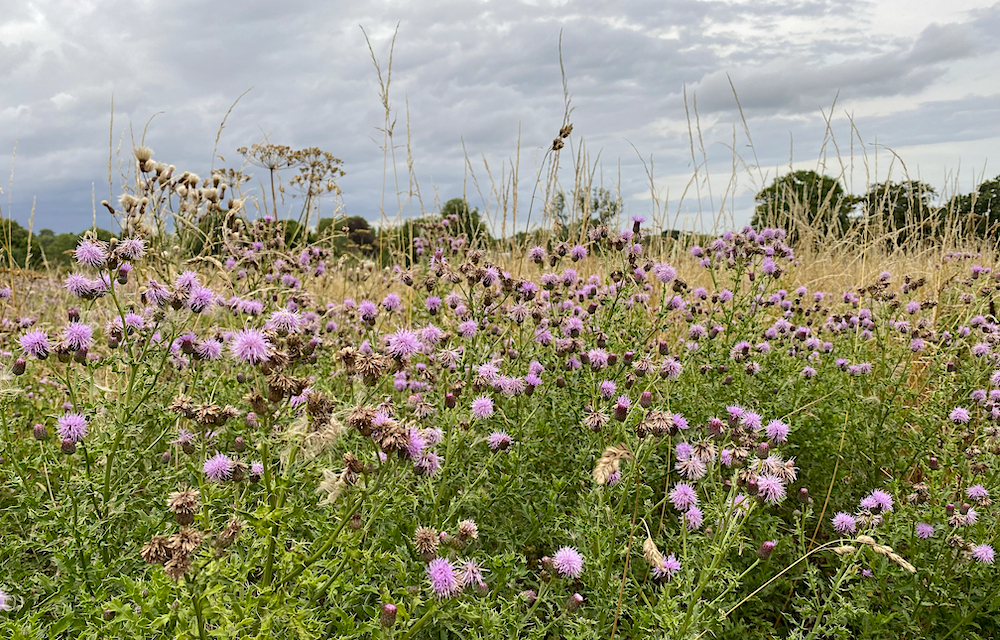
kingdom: Plantae
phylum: Tracheophyta
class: Magnoliopsida
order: Asterales
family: Asteraceae
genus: Cirsium
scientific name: Cirsium arvense
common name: Creeping thistle
